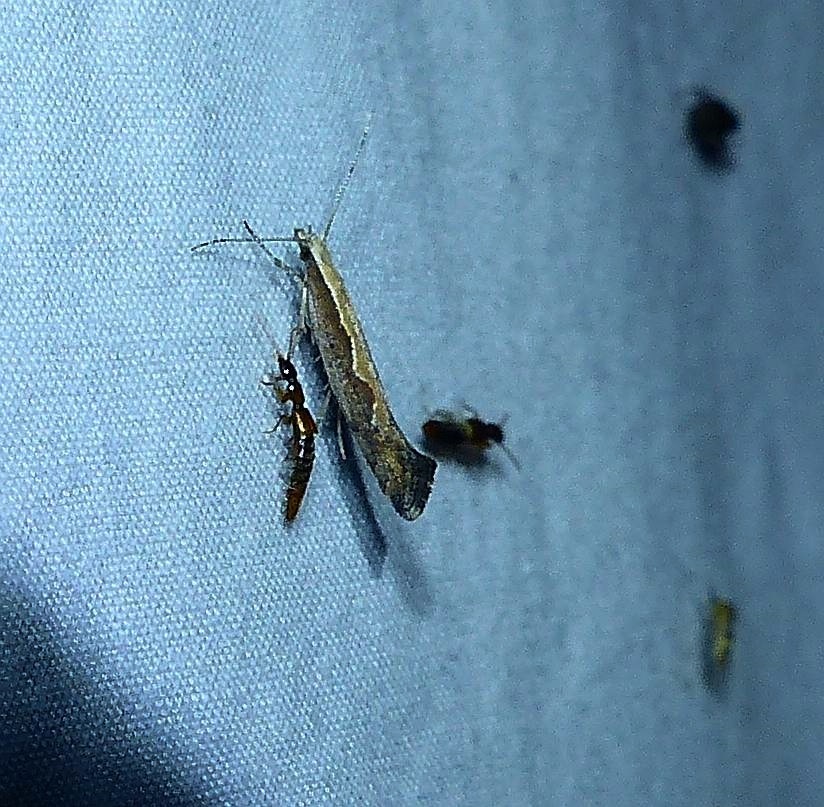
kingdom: Animalia
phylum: Arthropoda
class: Insecta
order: Lepidoptera
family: Plutellidae
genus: Plutella
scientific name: Plutella xylostella
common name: Diamond-back moth
